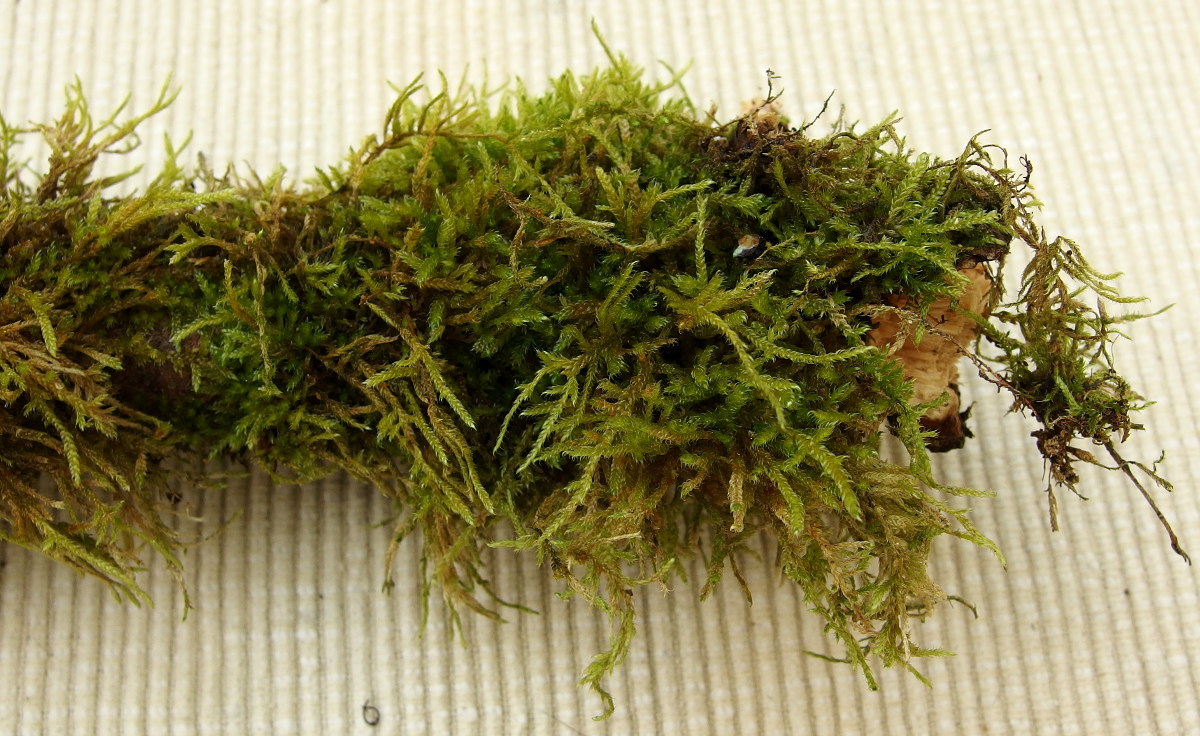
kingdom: Plantae
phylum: Bryophyta
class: Bryopsida
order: Hypnales
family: Hypnaceae
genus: Hypnum
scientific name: Hypnum cupressiforme
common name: Cypress-leaved plait-moss
